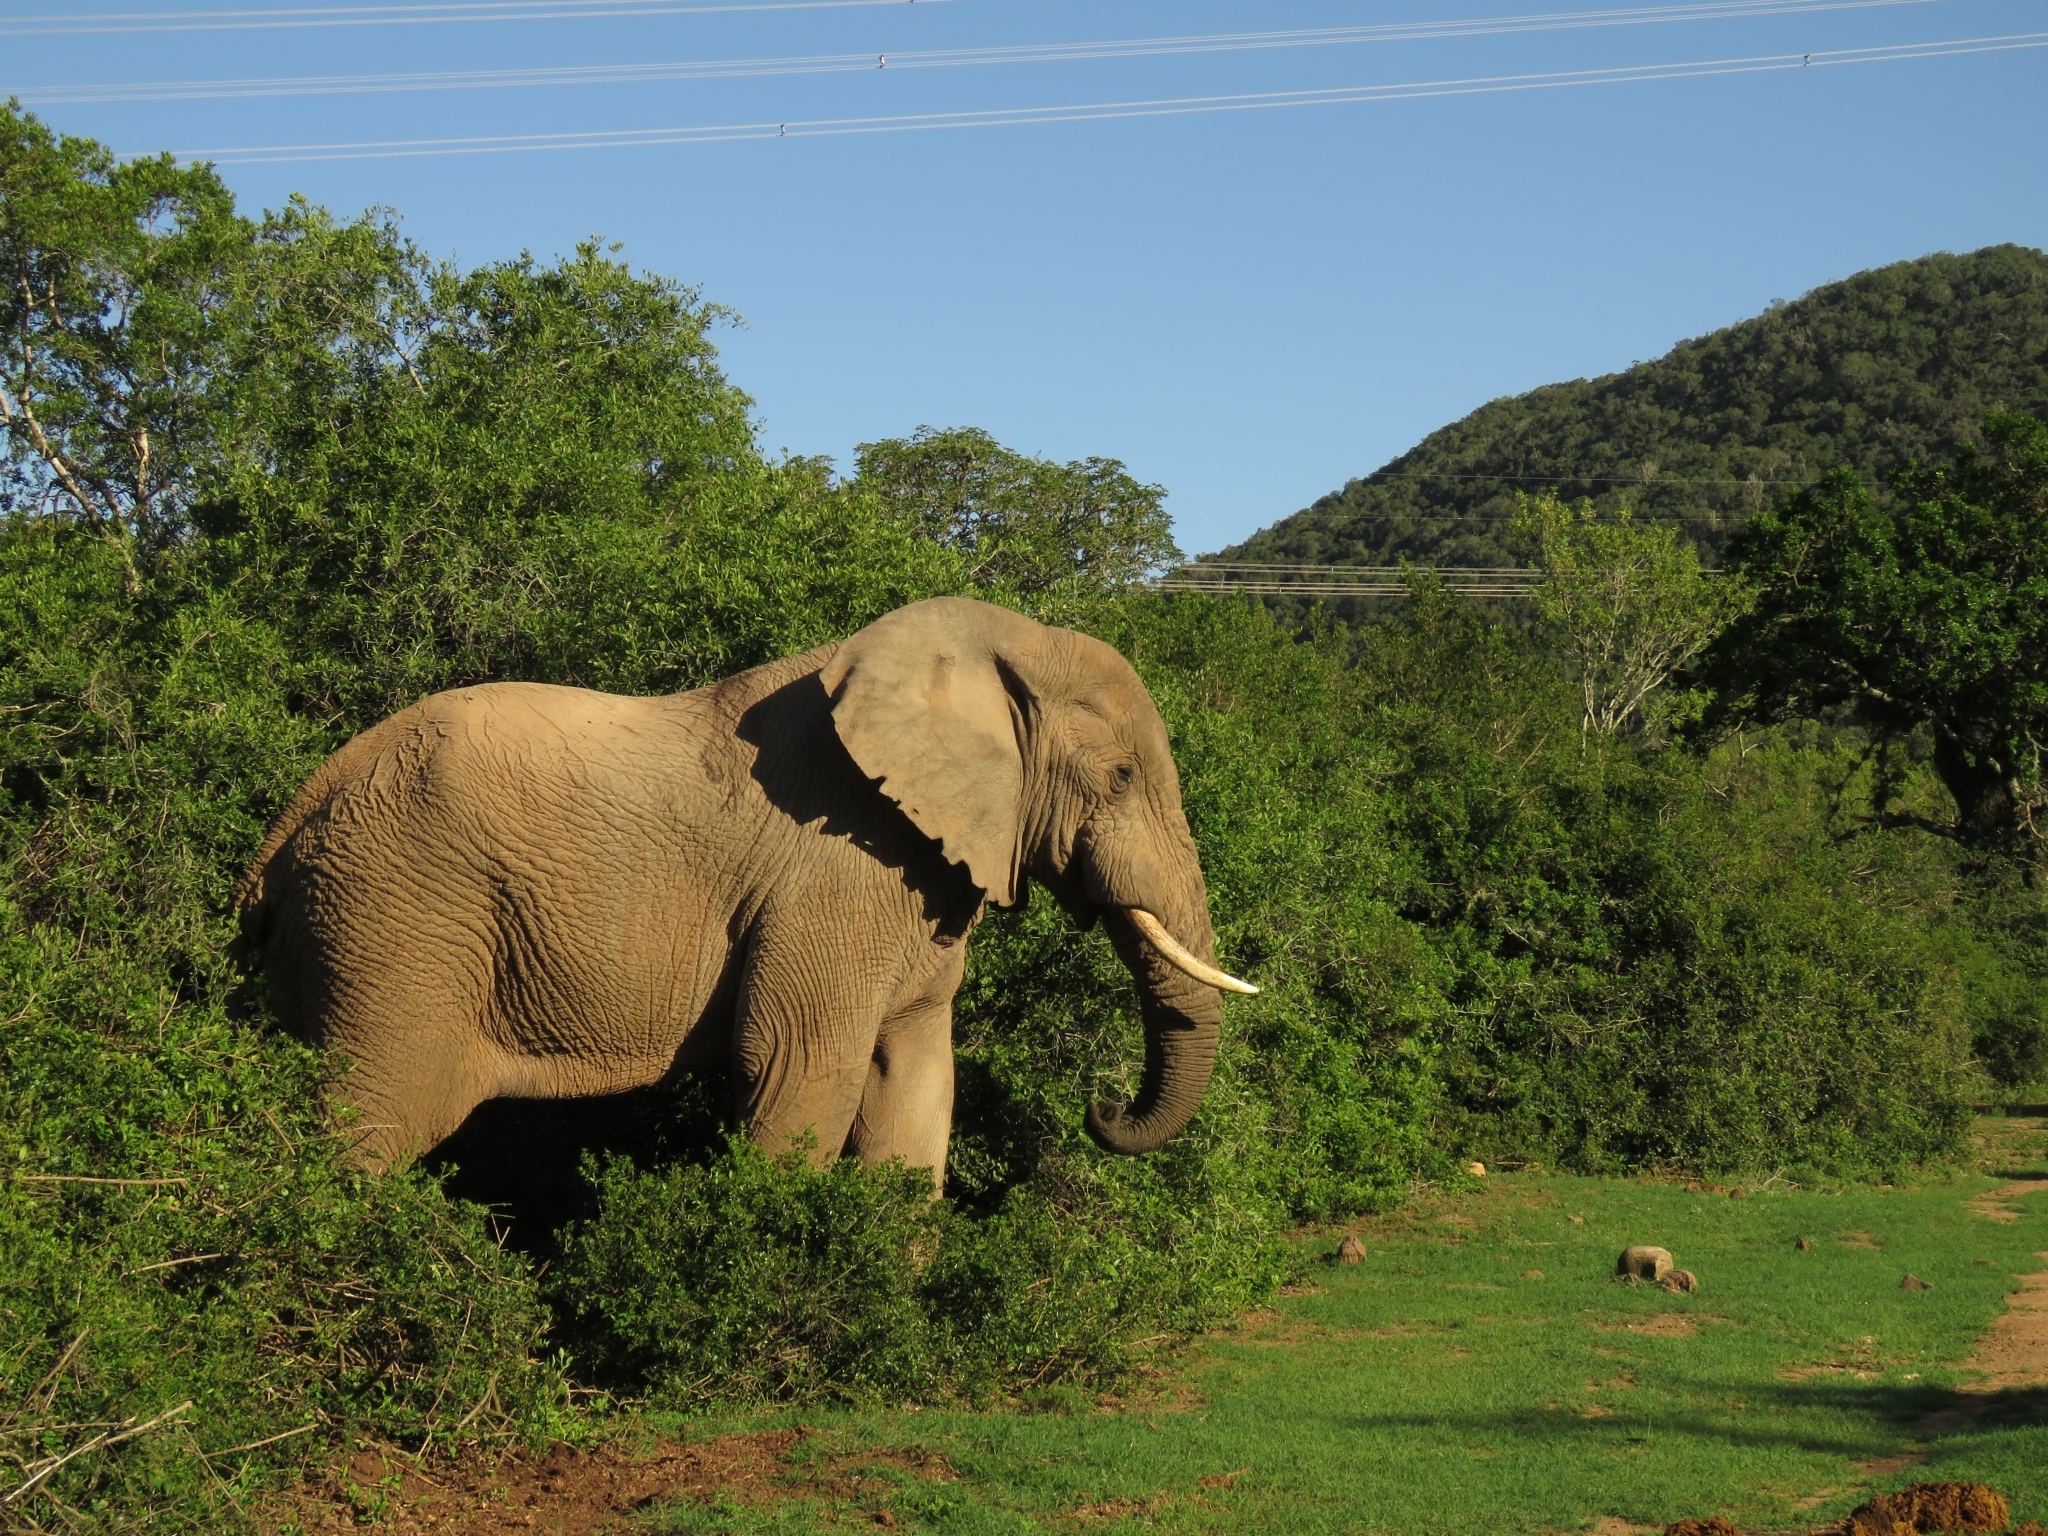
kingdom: Animalia
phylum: Chordata
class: Mammalia
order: Proboscidea
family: Elephantidae
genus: Loxodonta
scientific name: Loxodonta africana
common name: African elephant
